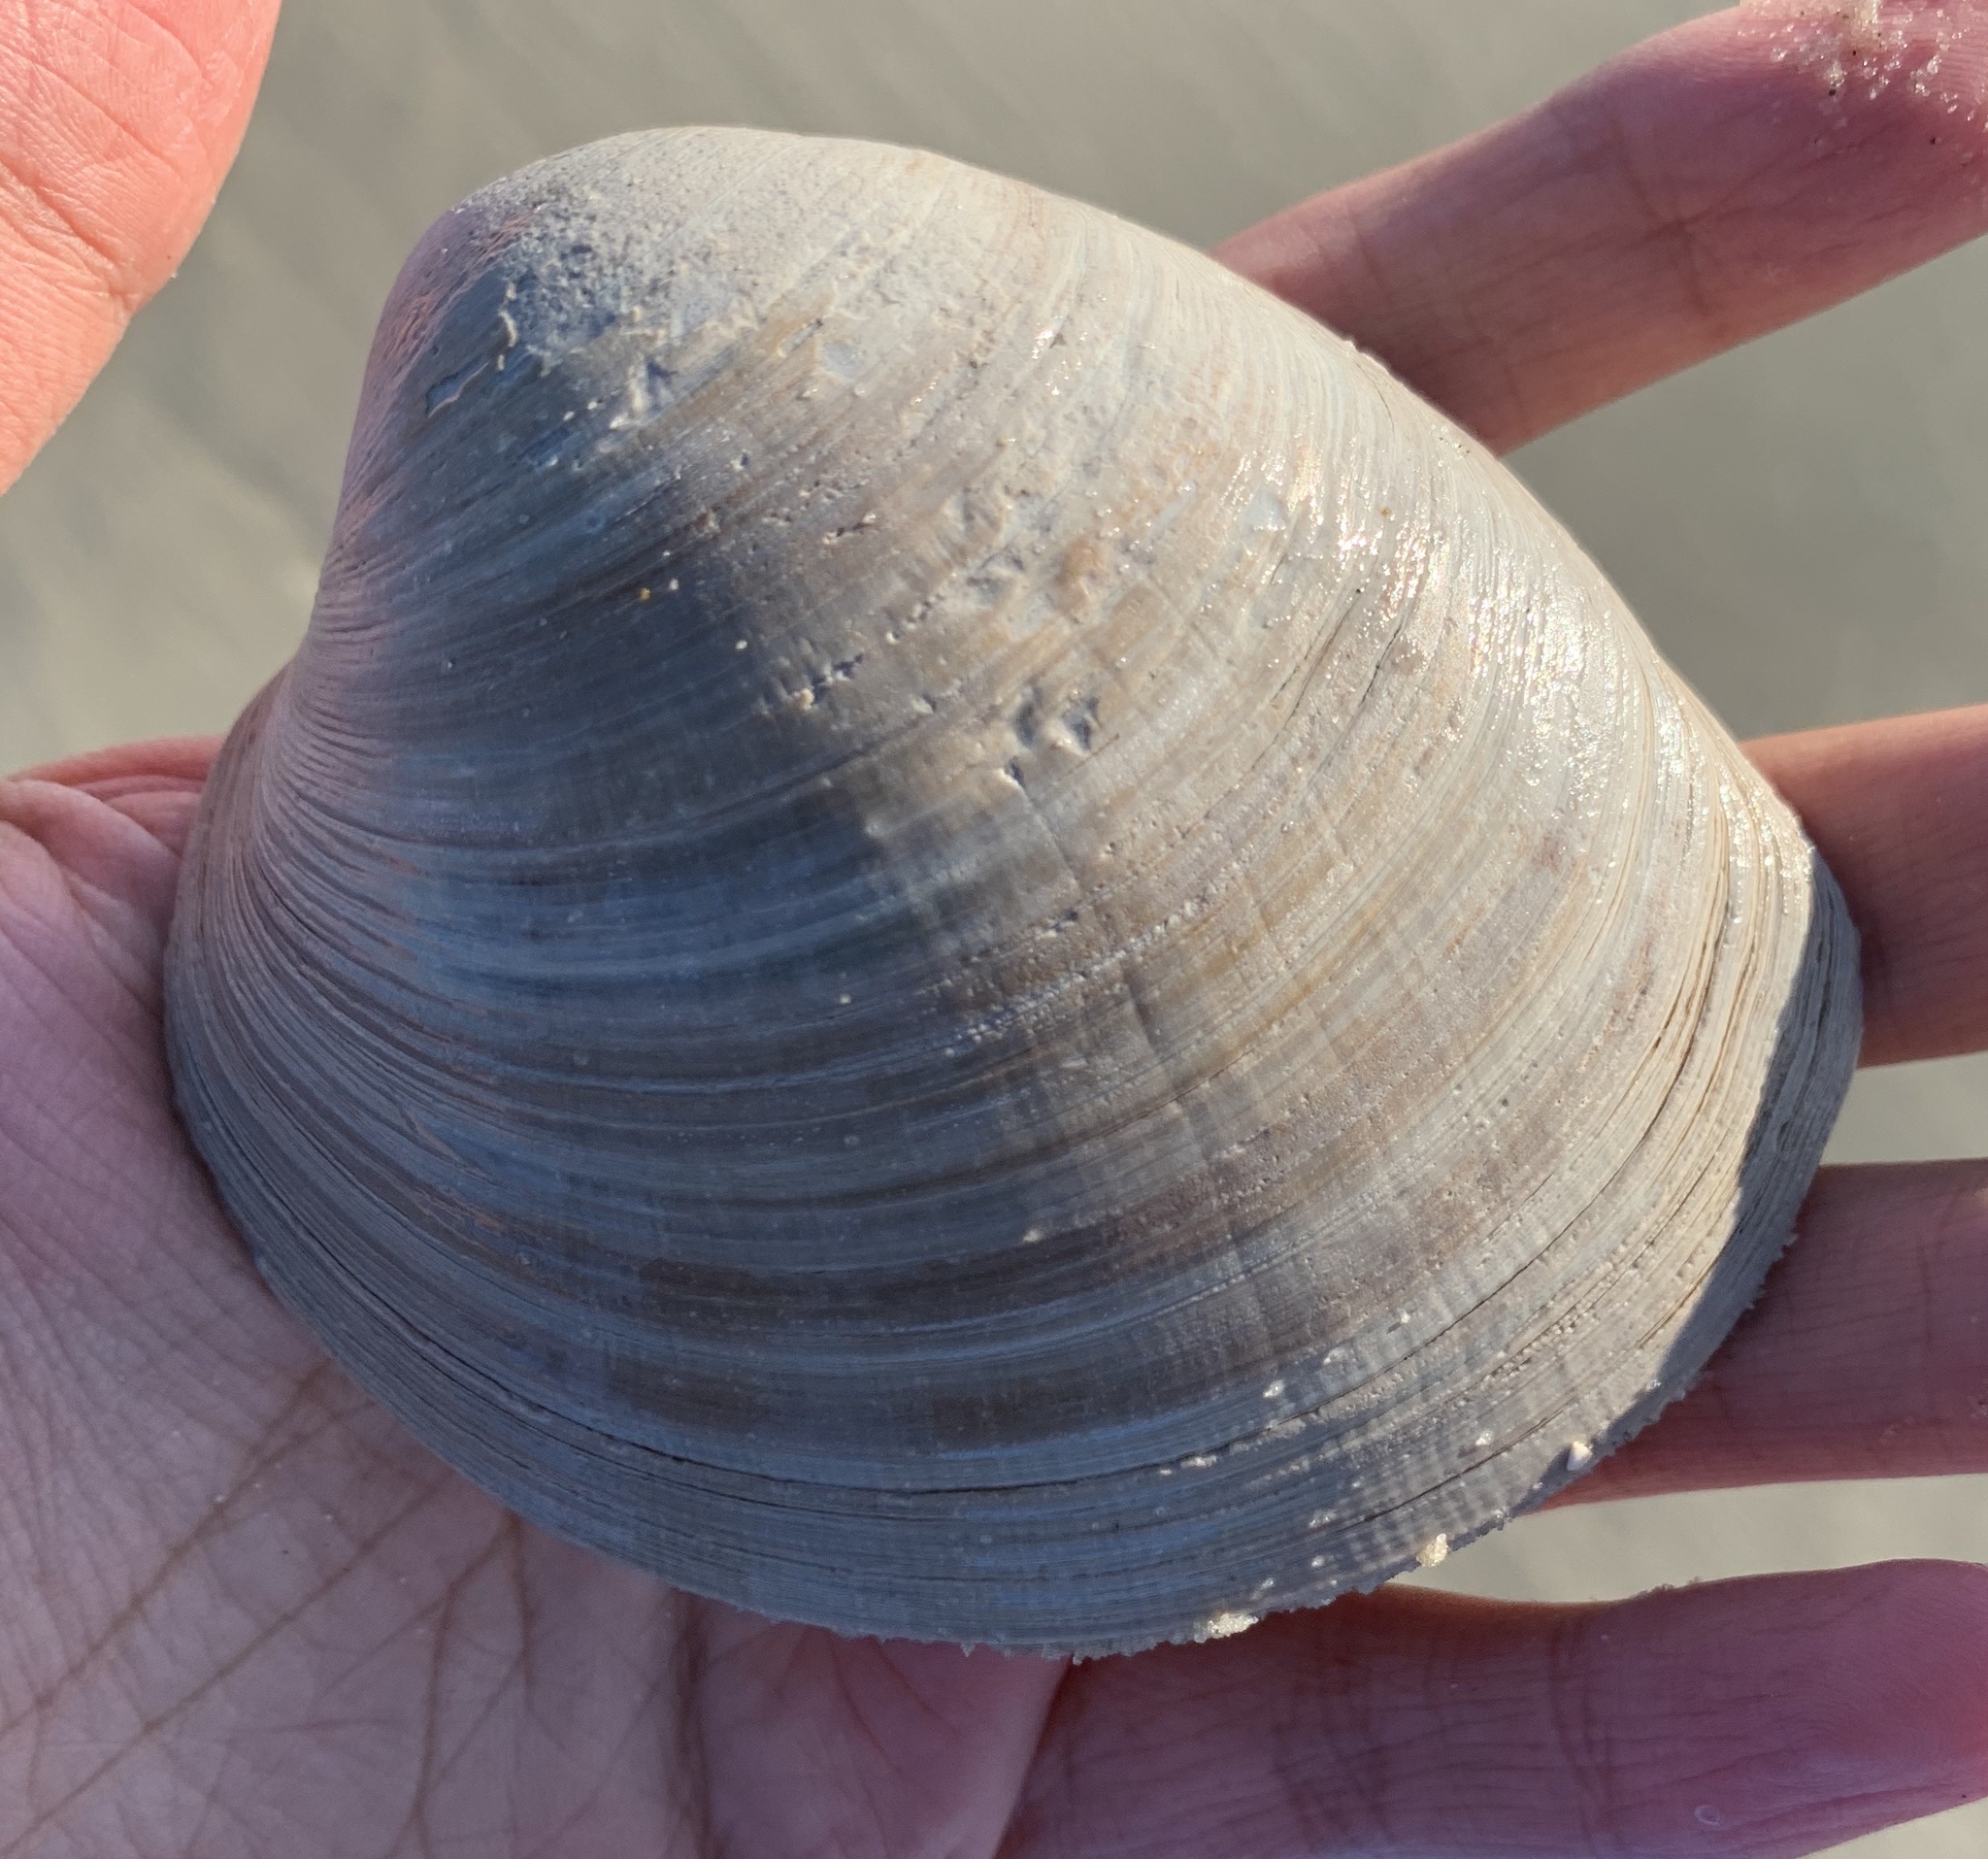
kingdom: Animalia
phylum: Mollusca
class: Bivalvia
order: Venerida
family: Veneridae
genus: Mercenaria
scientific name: Mercenaria mercenaria
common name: American hard-shelled clam
